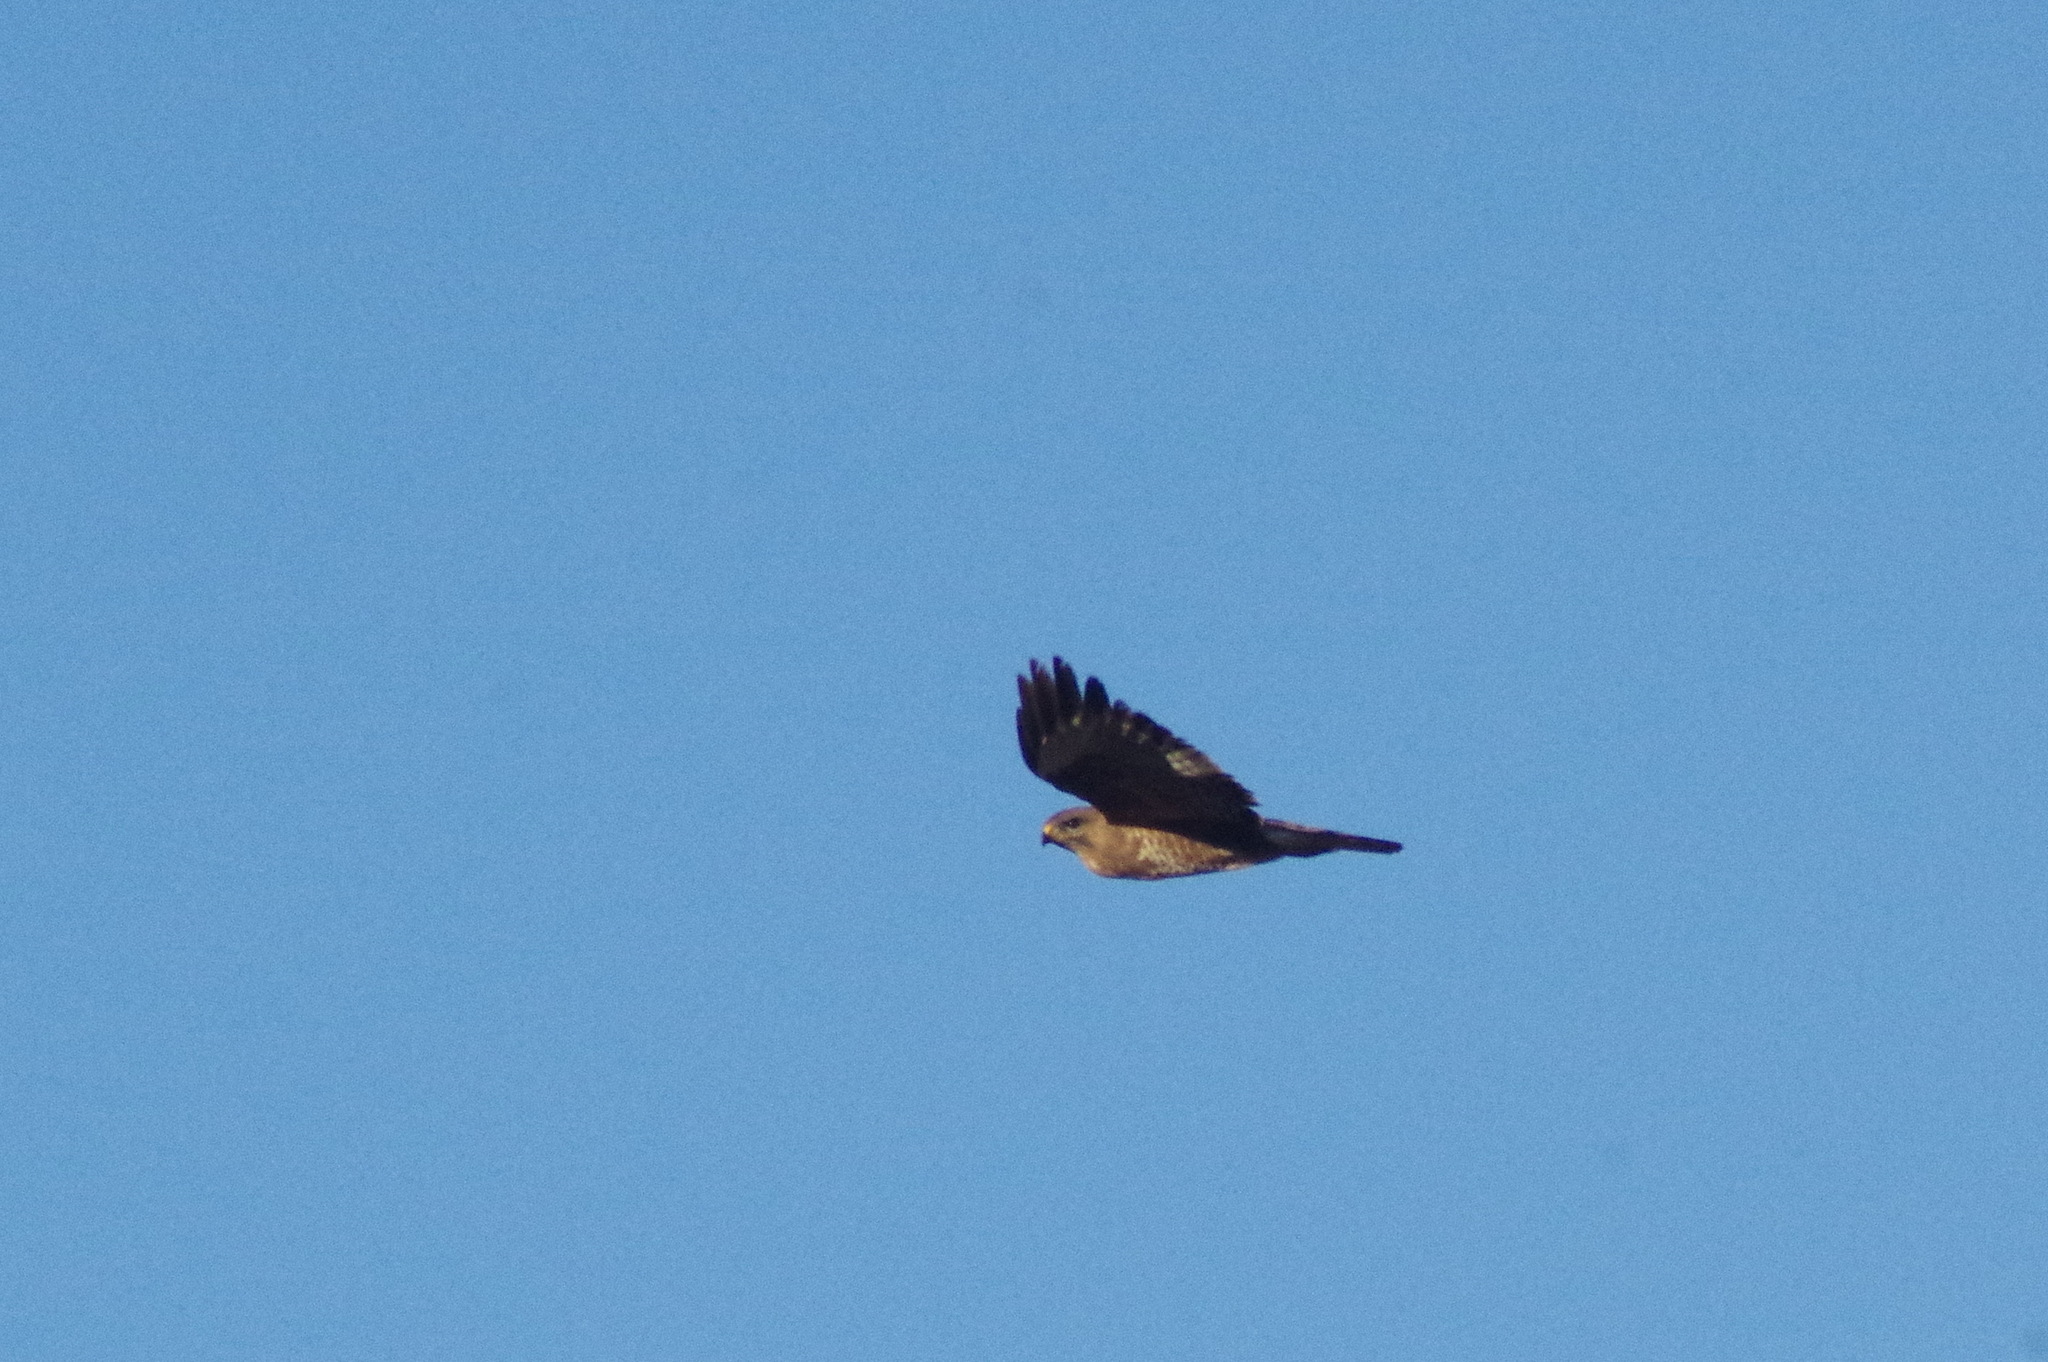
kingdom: Animalia
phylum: Chordata
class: Aves
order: Accipitriformes
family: Accipitridae
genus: Buteo
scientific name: Buteo buteo
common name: Common buzzard
